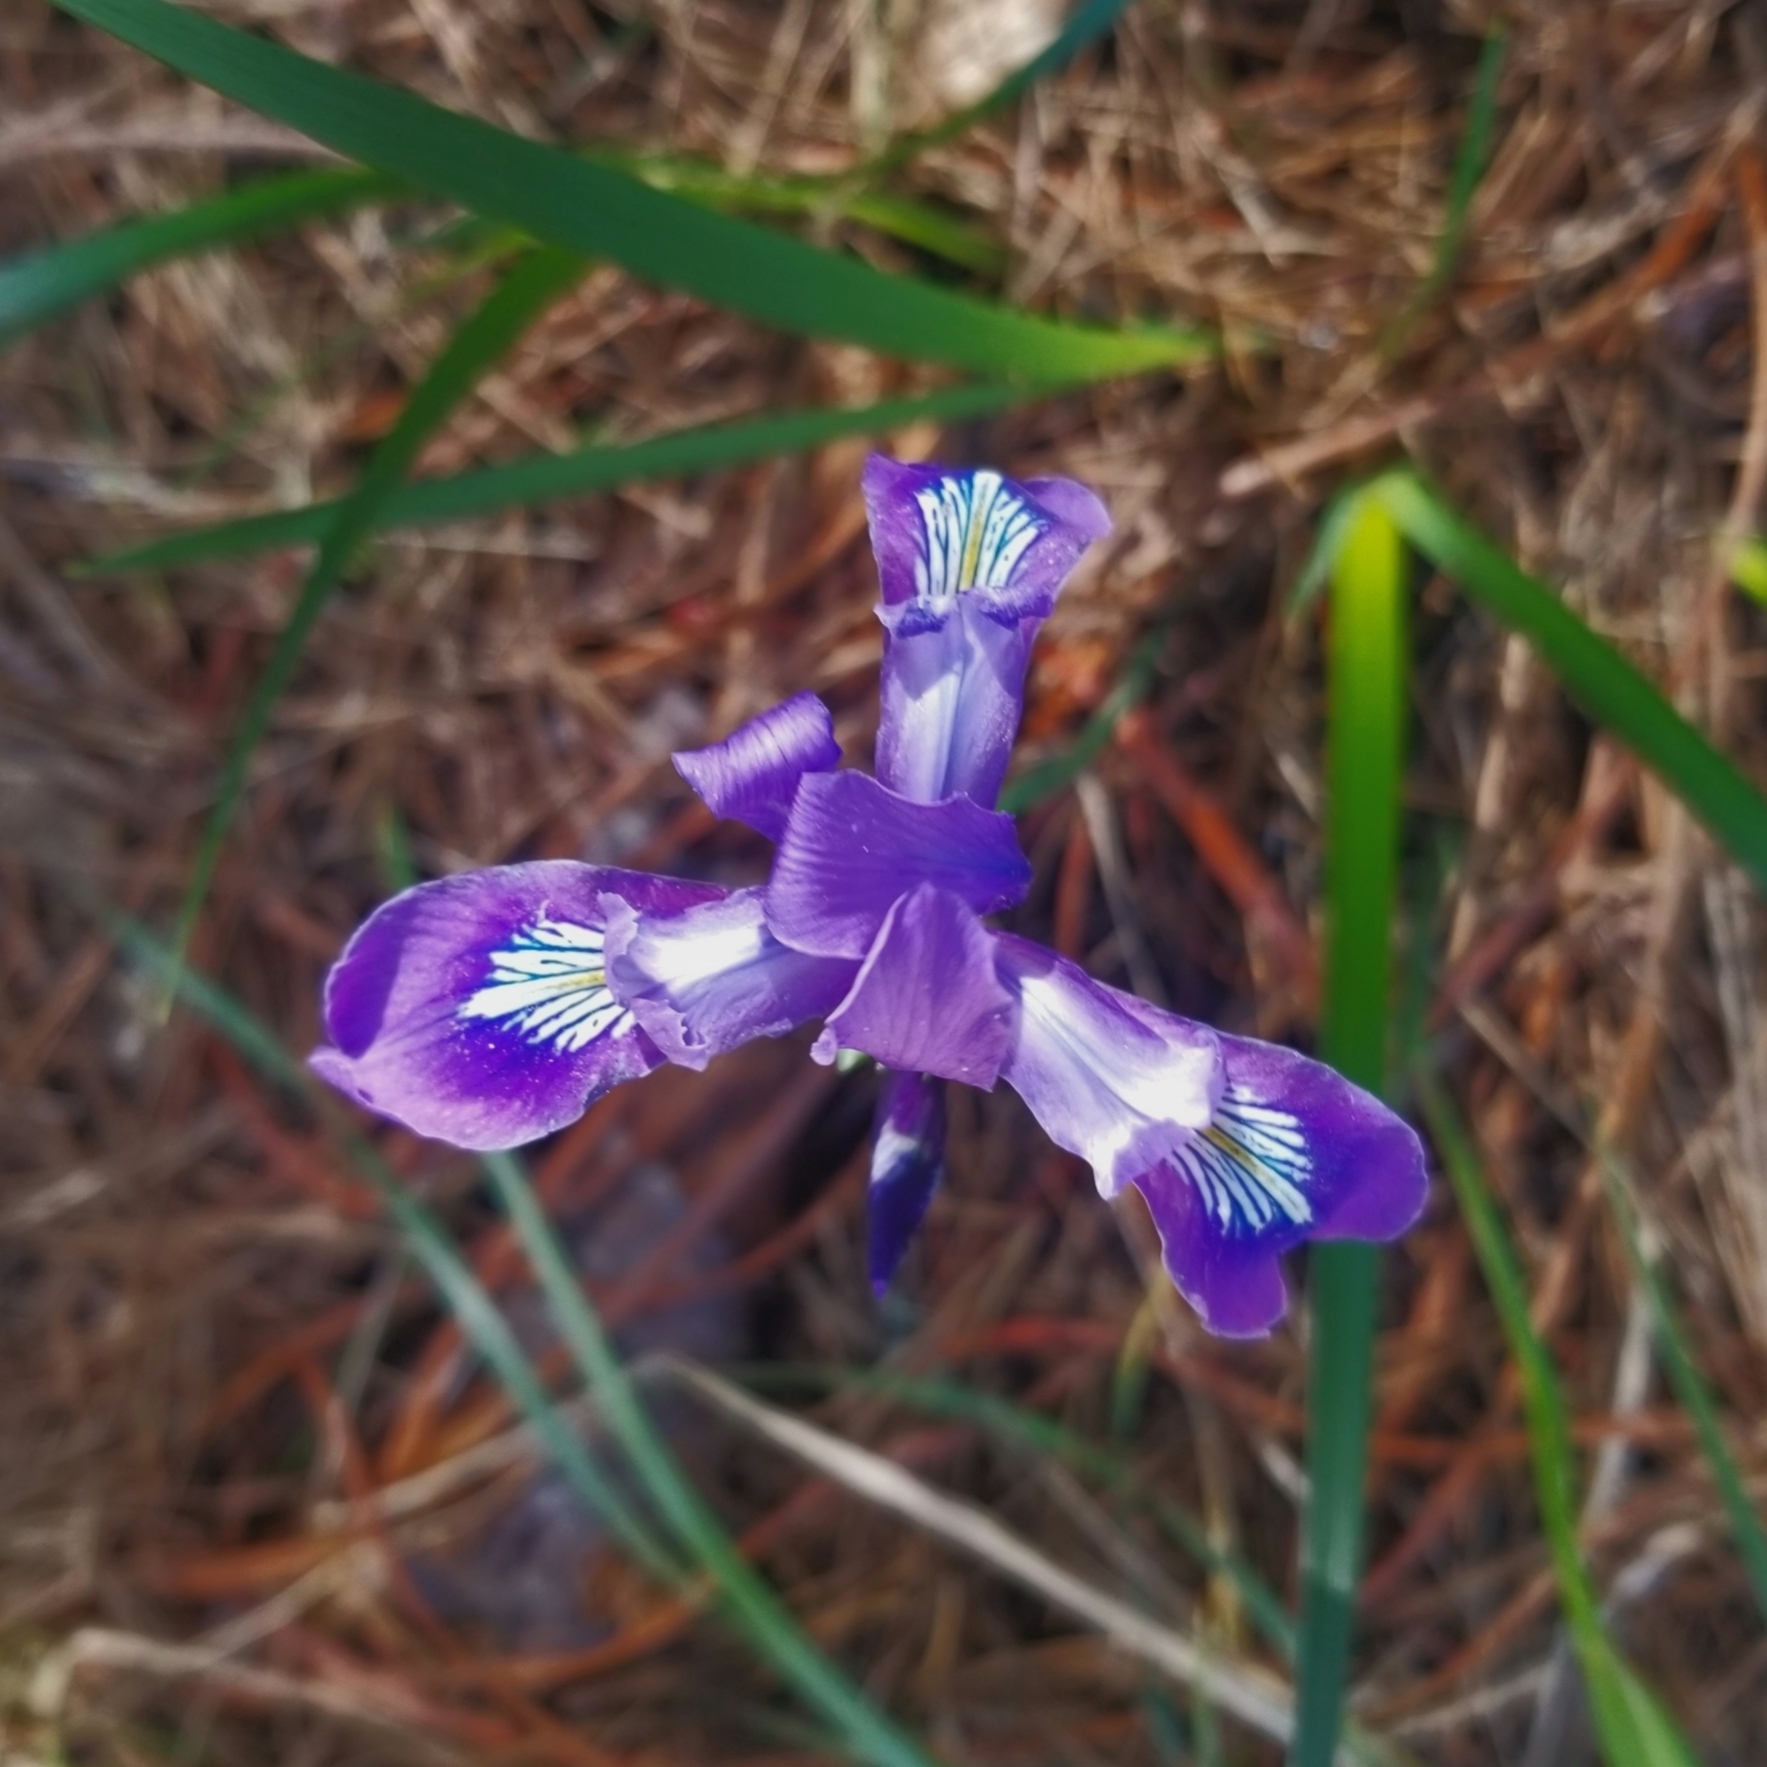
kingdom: Plantae
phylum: Tracheophyta
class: Liliopsida
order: Asparagales
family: Iridaceae
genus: Iris
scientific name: Iris douglasiana
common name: Marin iris
